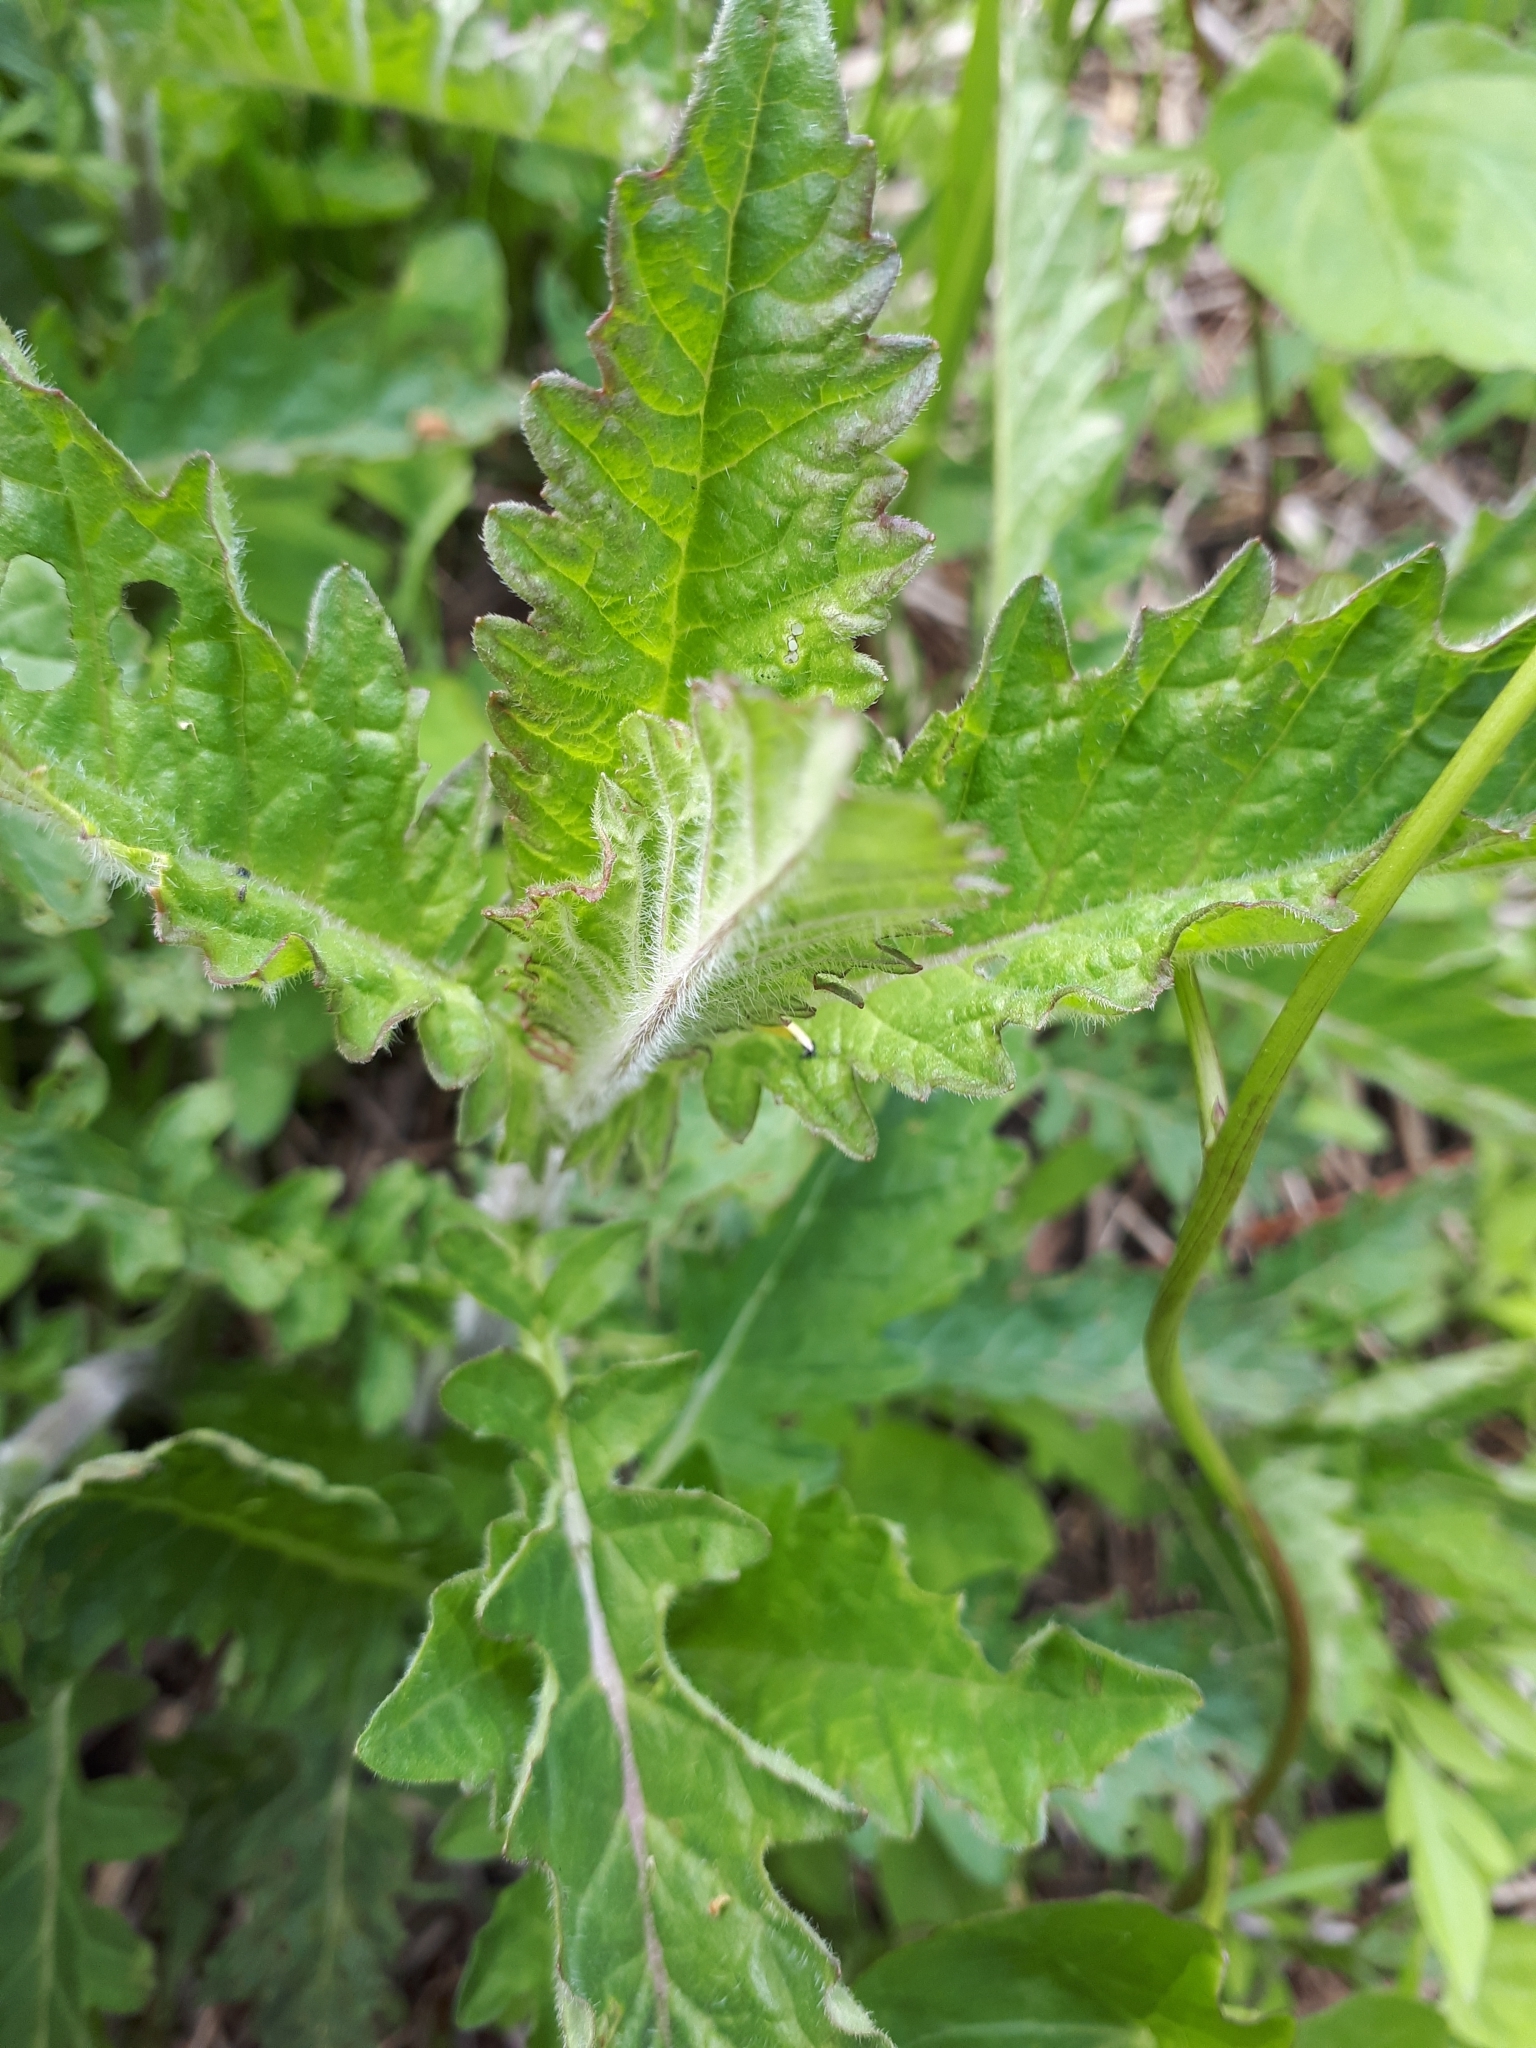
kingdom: Plantae
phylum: Tracheophyta
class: Magnoliopsida
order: Lamiales
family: Lamiaceae
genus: Lycopus
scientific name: Lycopus europaeus
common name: European bugleweed
